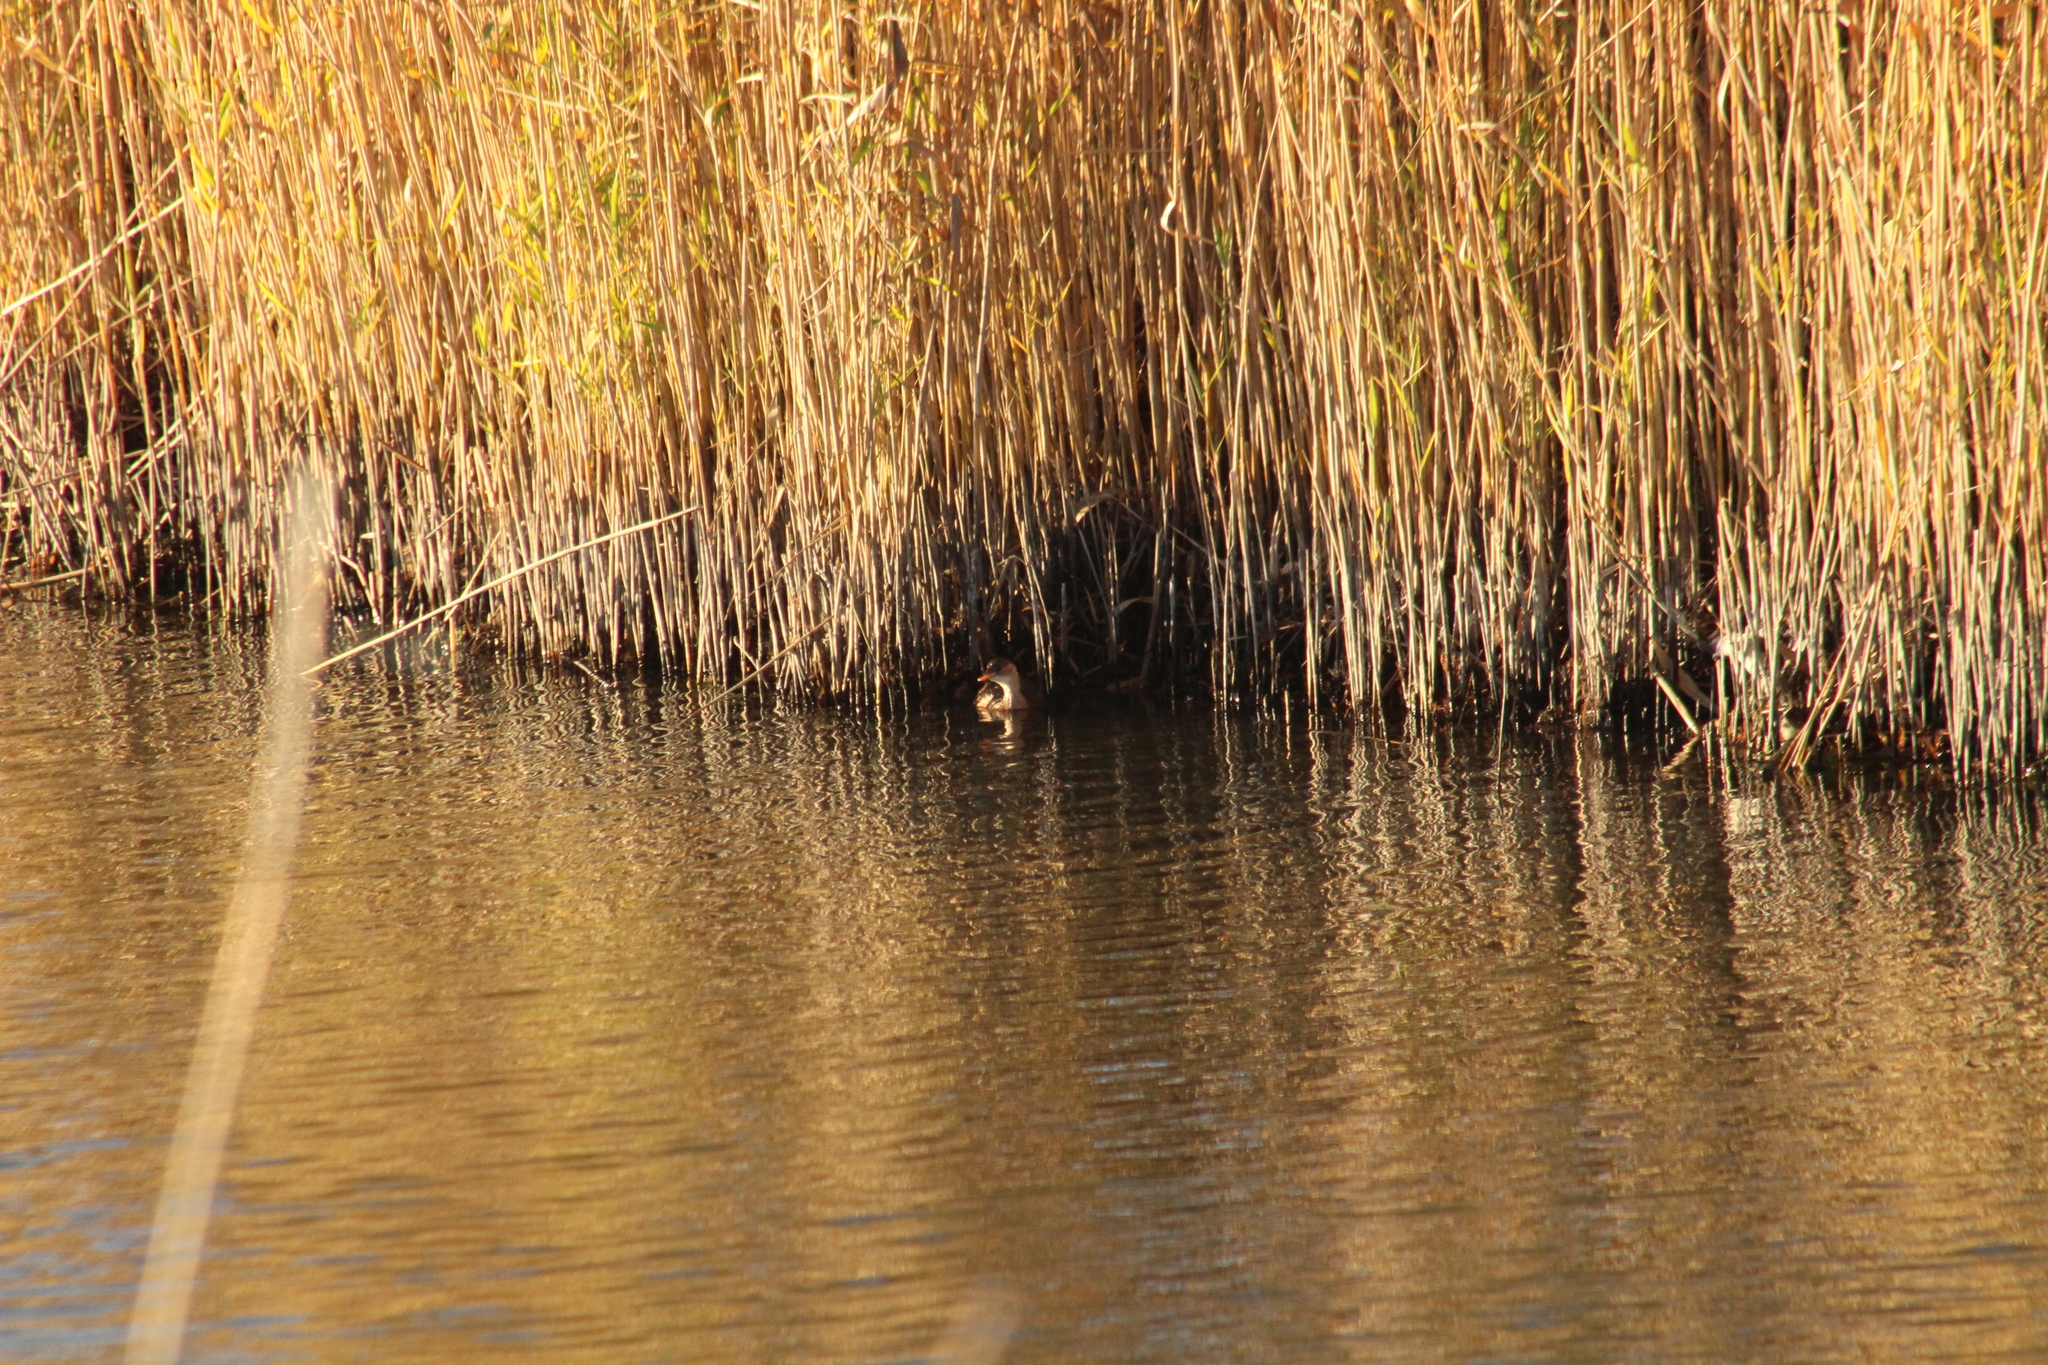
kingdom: Animalia
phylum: Chordata
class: Aves
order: Podicipediformes
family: Podicipedidae
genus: Tachybaptus
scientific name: Tachybaptus ruficollis
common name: Little grebe
